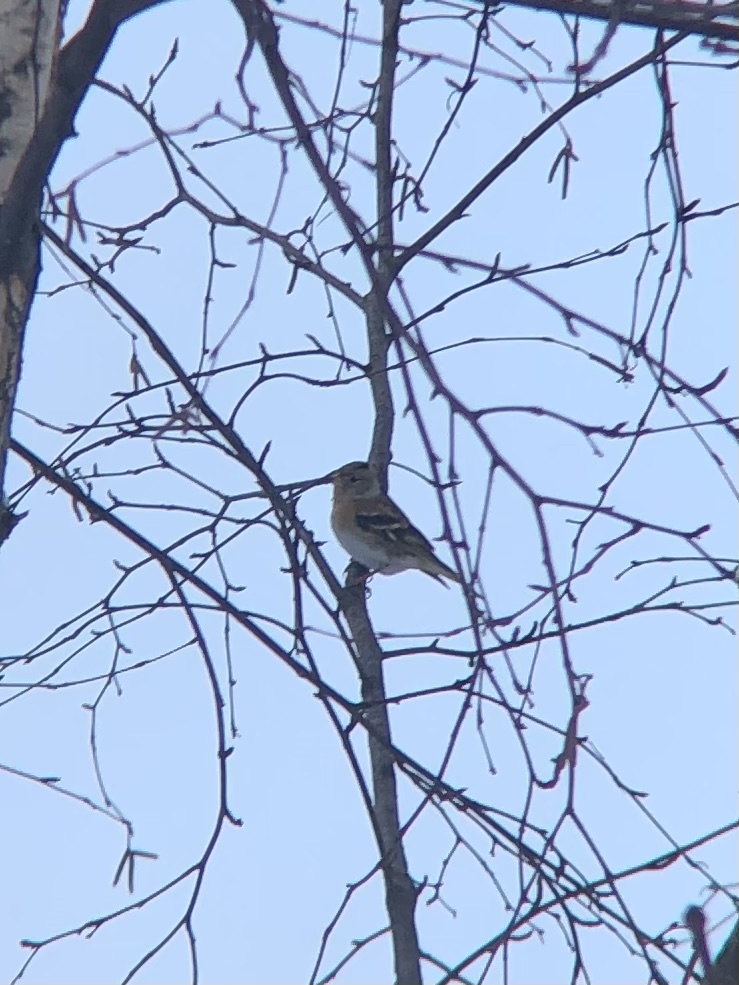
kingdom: Animalia
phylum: Chordata
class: Aves
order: Passeriformes
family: Fringillidae
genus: Fringilla
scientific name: Fringilla montifringilla
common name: Brambling
